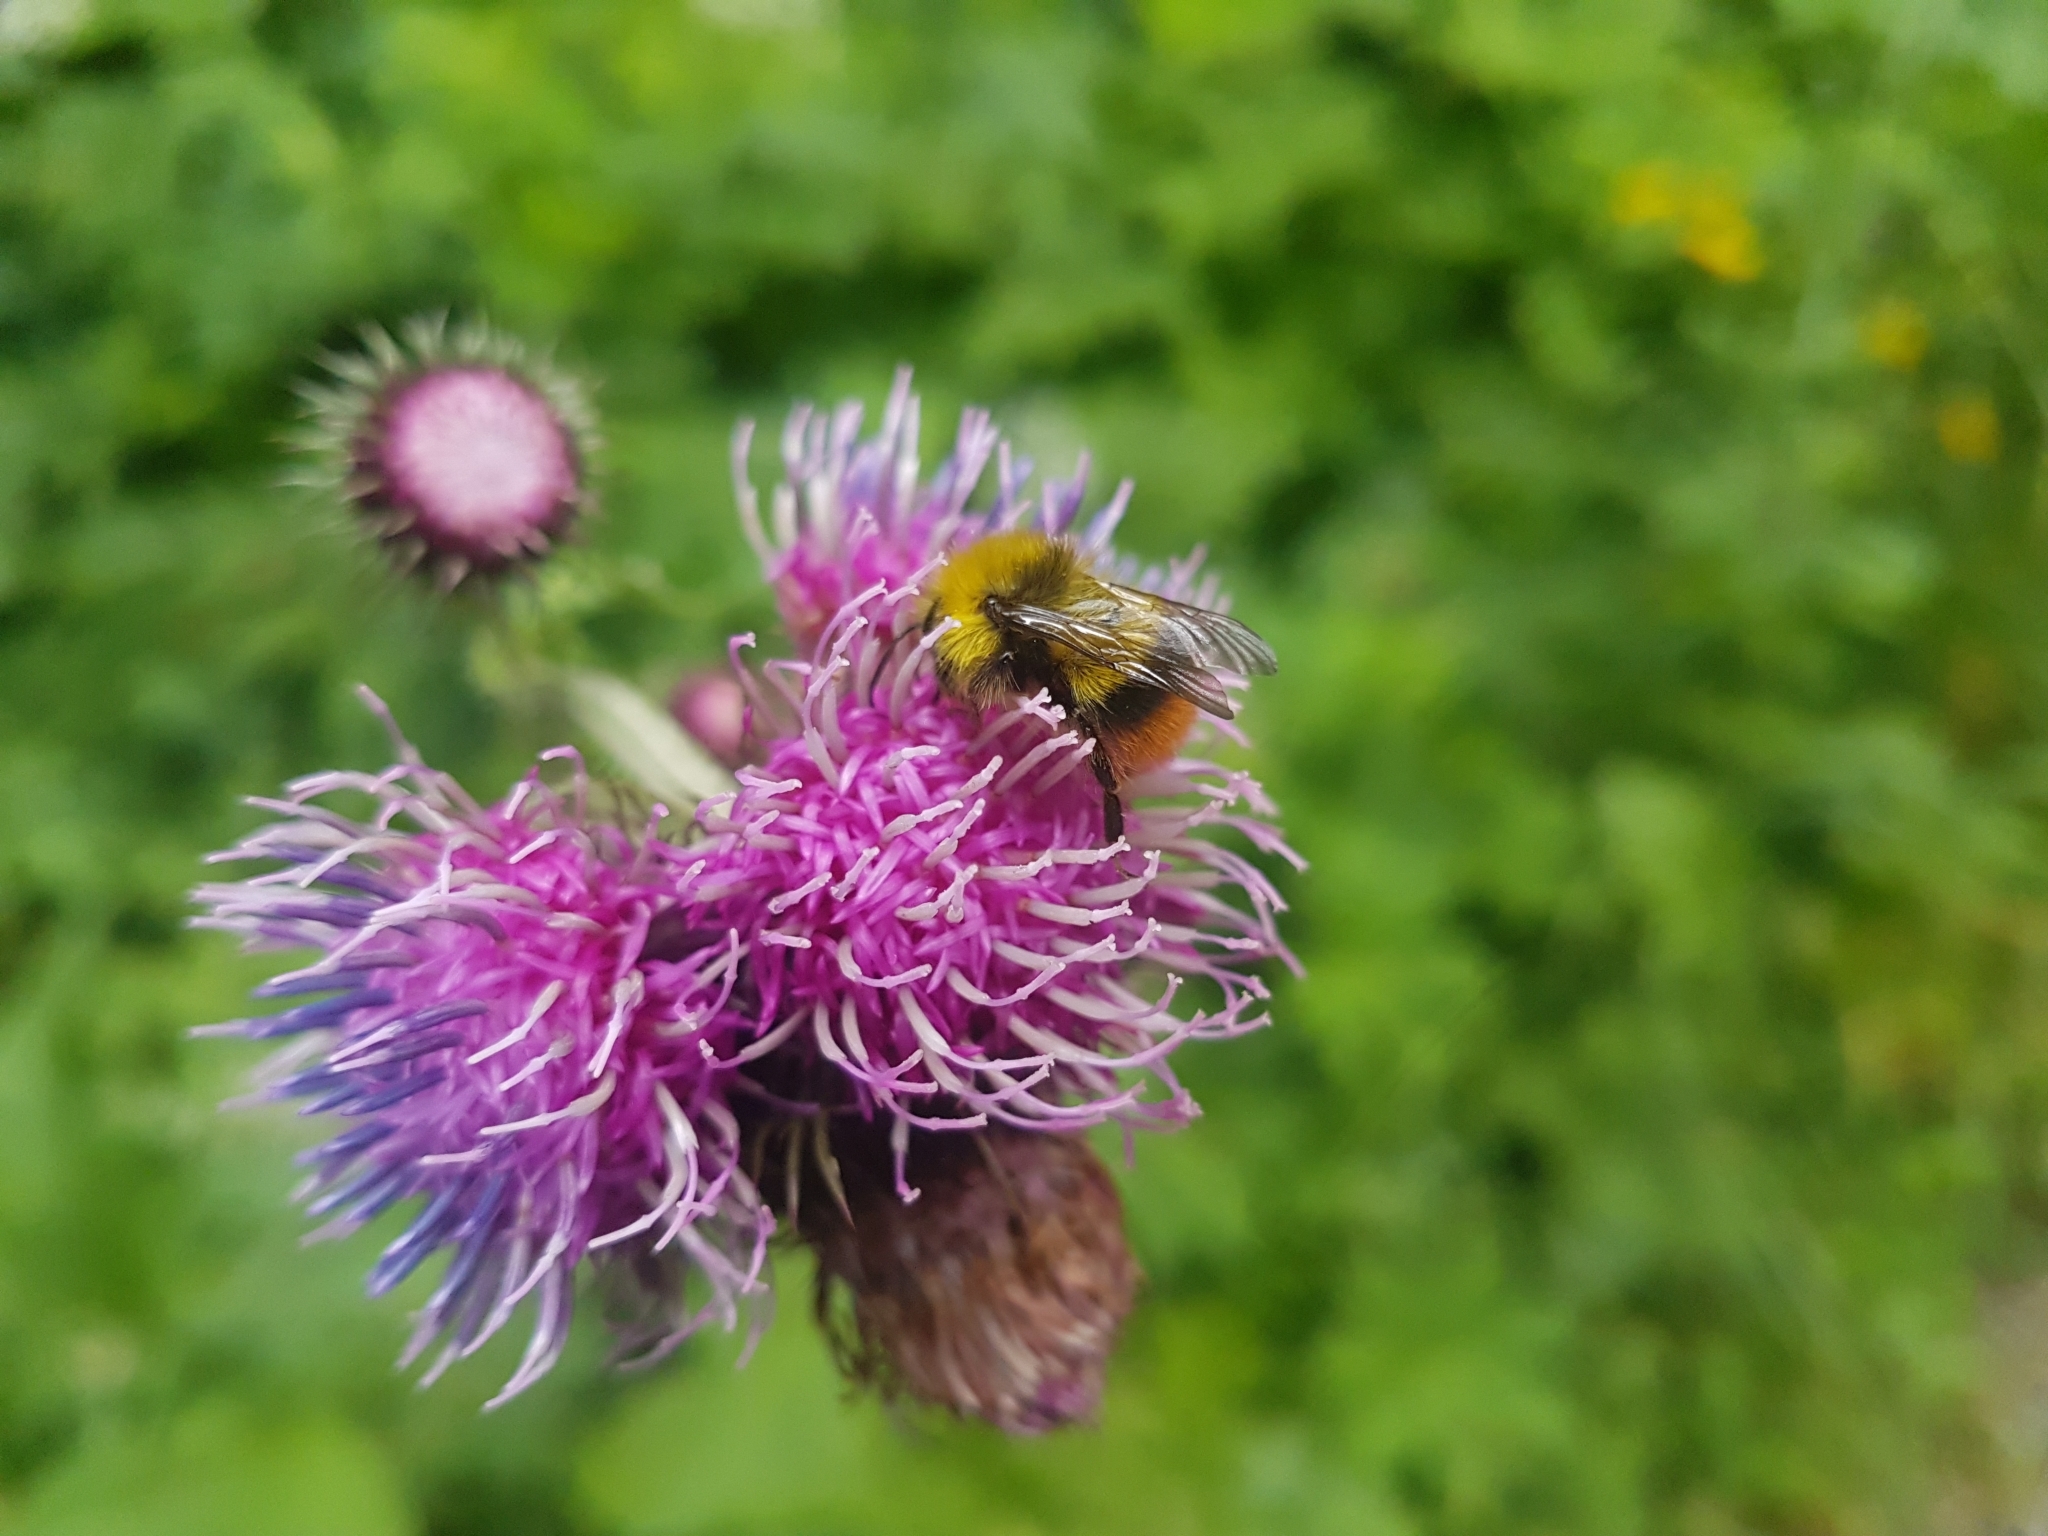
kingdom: Animalia
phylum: Arthropoda
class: Insecta
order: Hymenoptera
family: Apidae
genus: Bombus
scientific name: Bombus pratorum
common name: Early humble-bee
